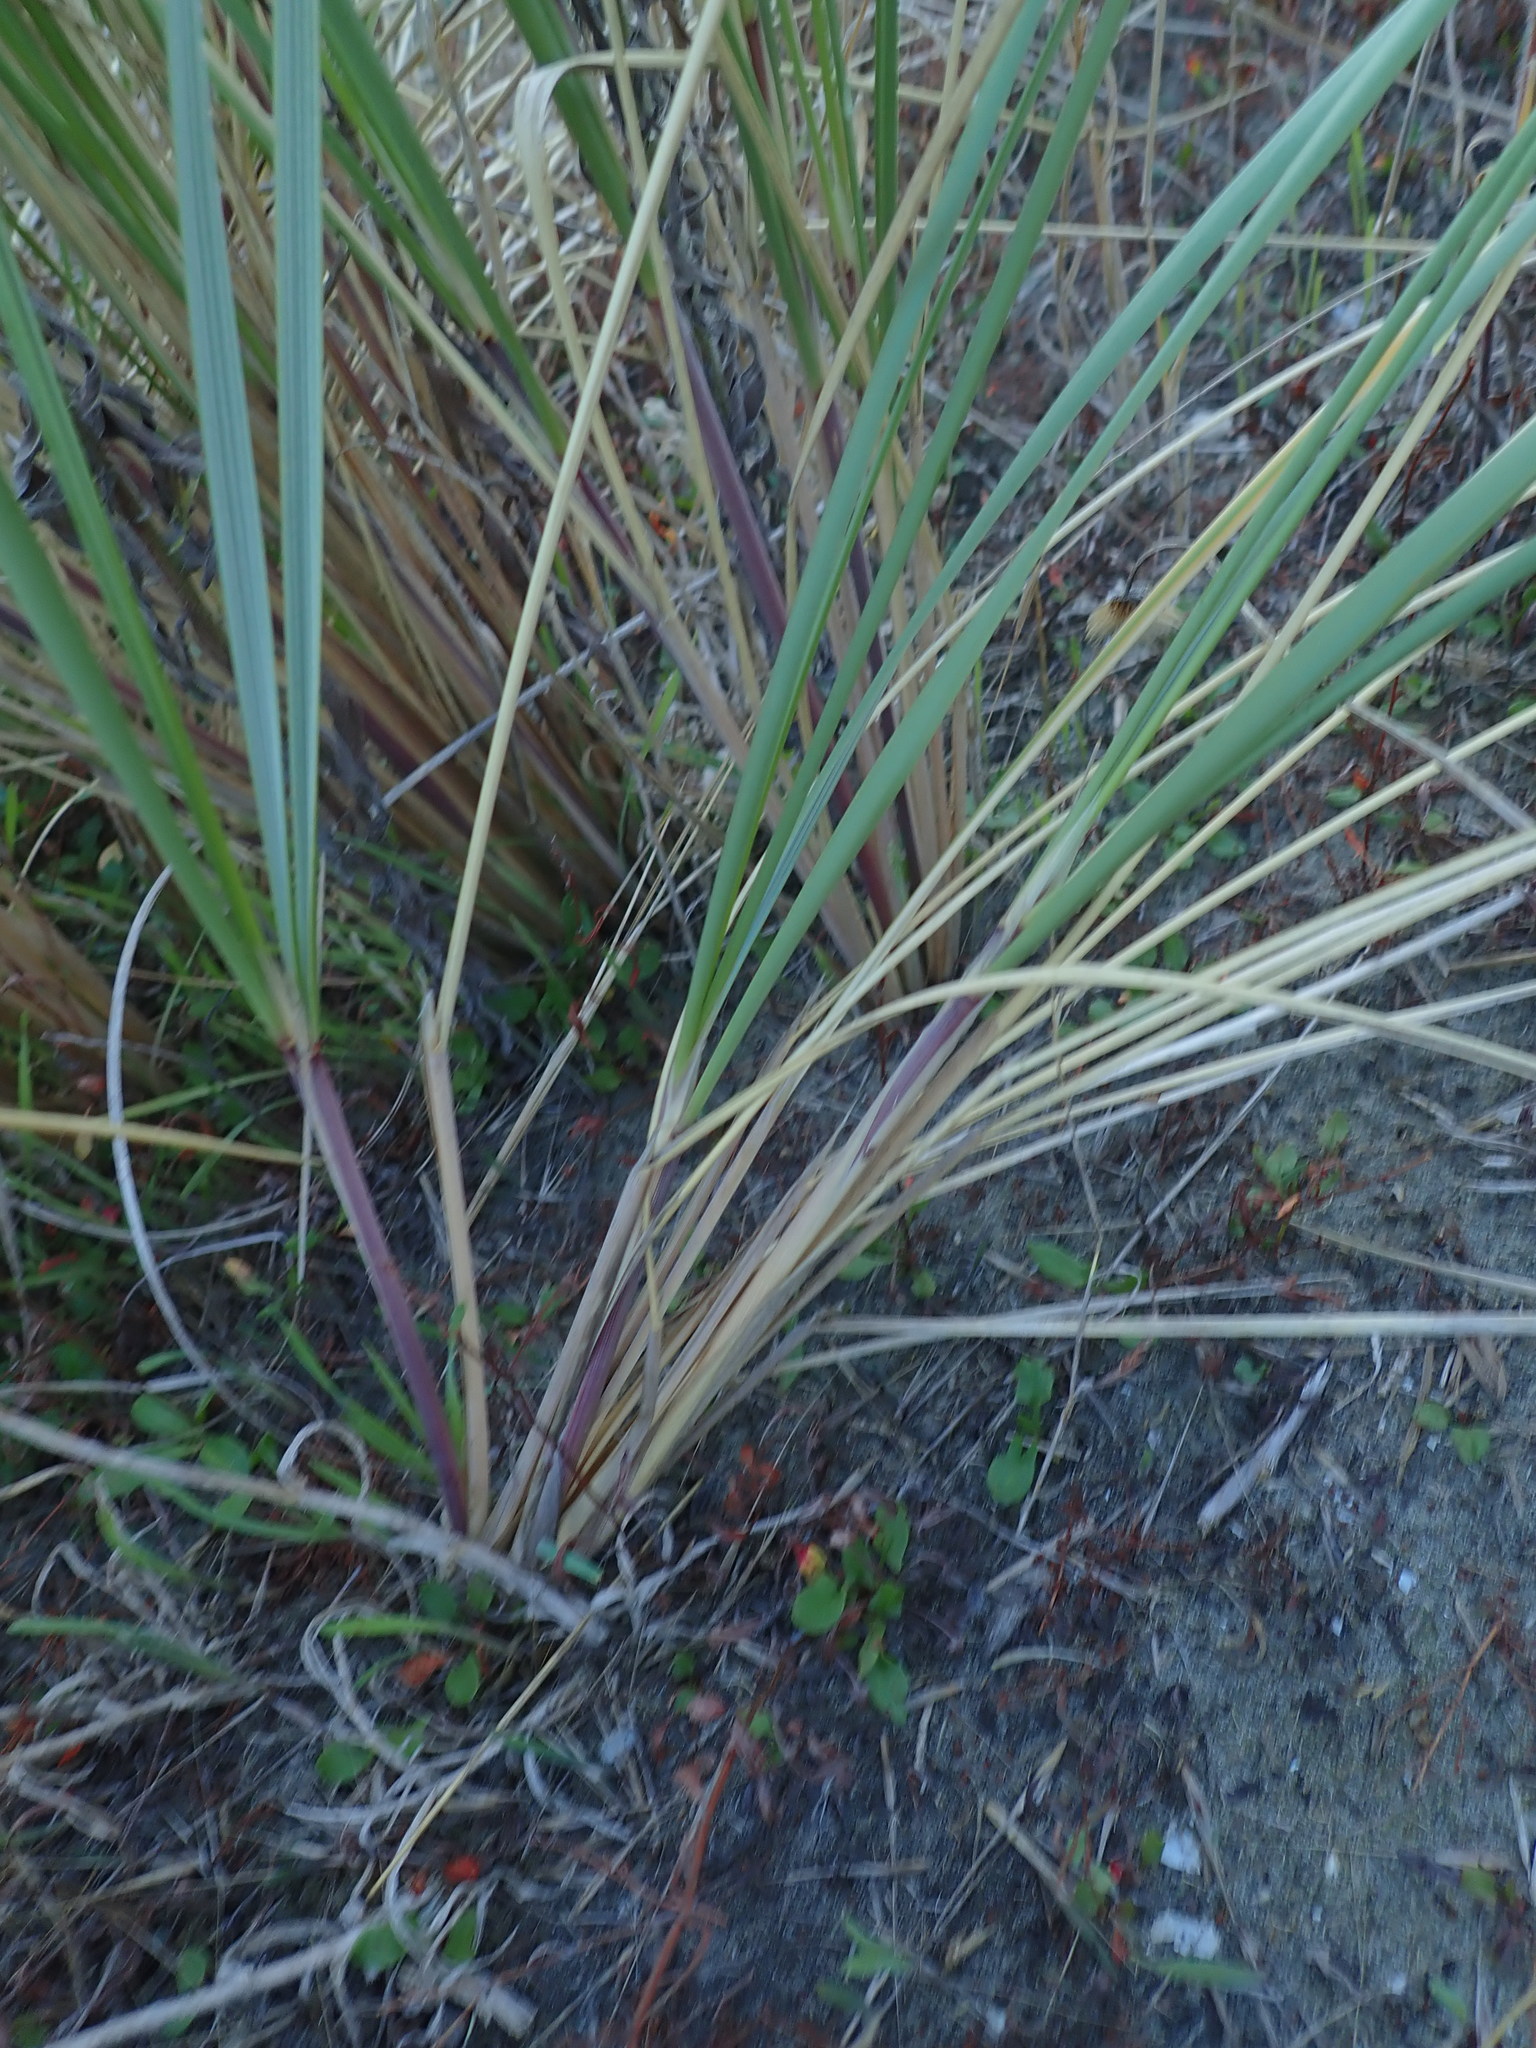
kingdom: Plantae
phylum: Tracheophyta
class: Liliopsida
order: Poales
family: Poaceae
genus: Calamagrostis
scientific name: Calamagrostis arenaria
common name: European beachgrass
